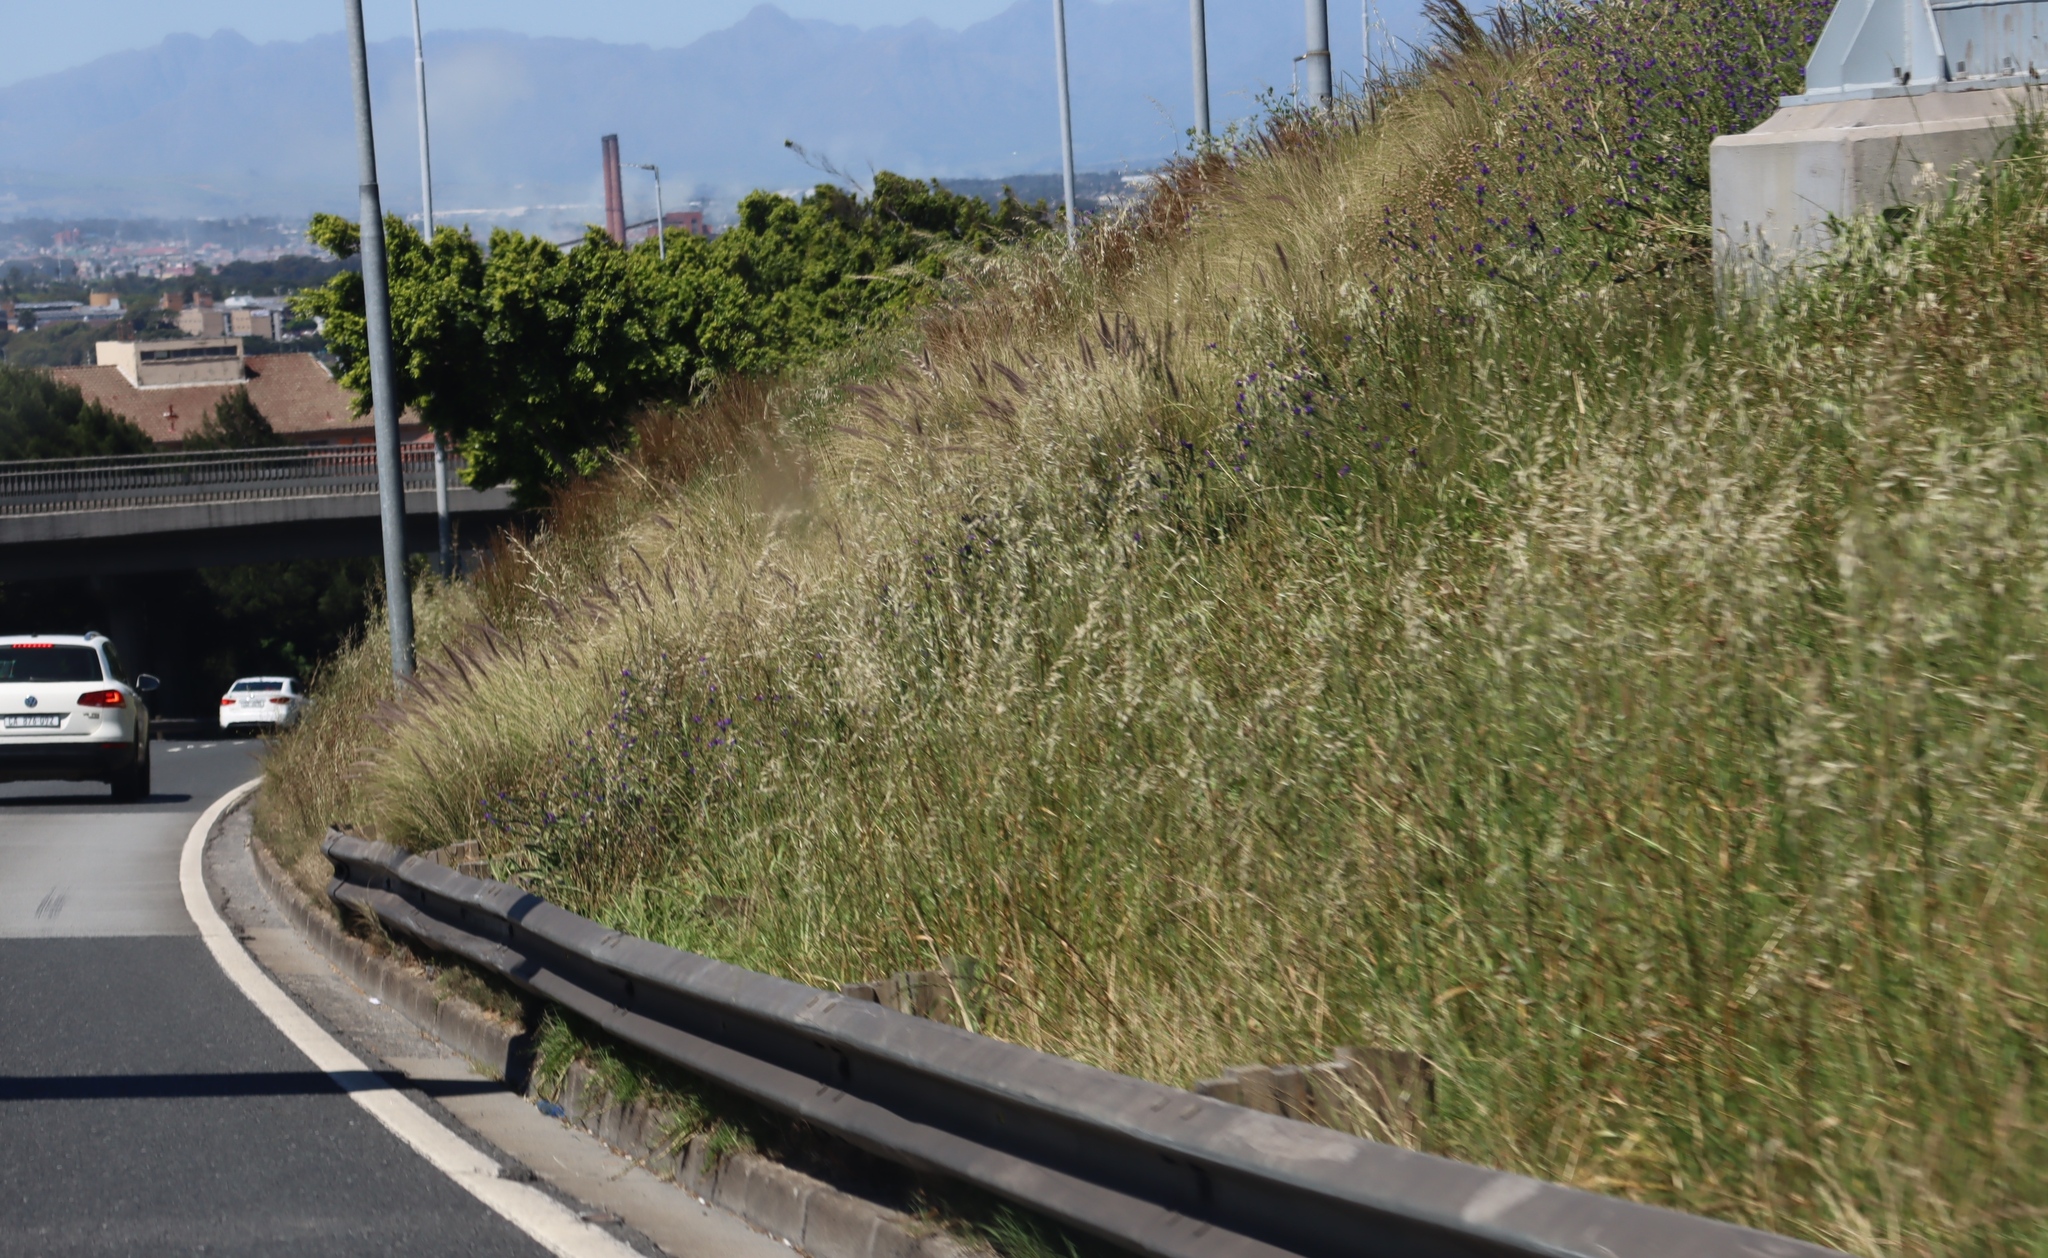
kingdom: Plantae
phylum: Tracheophyta
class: Liliopsida
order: Poales
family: Poaceae
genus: Cenchrus
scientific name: Cenchrus setaceus
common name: Crimson fountaingrass
